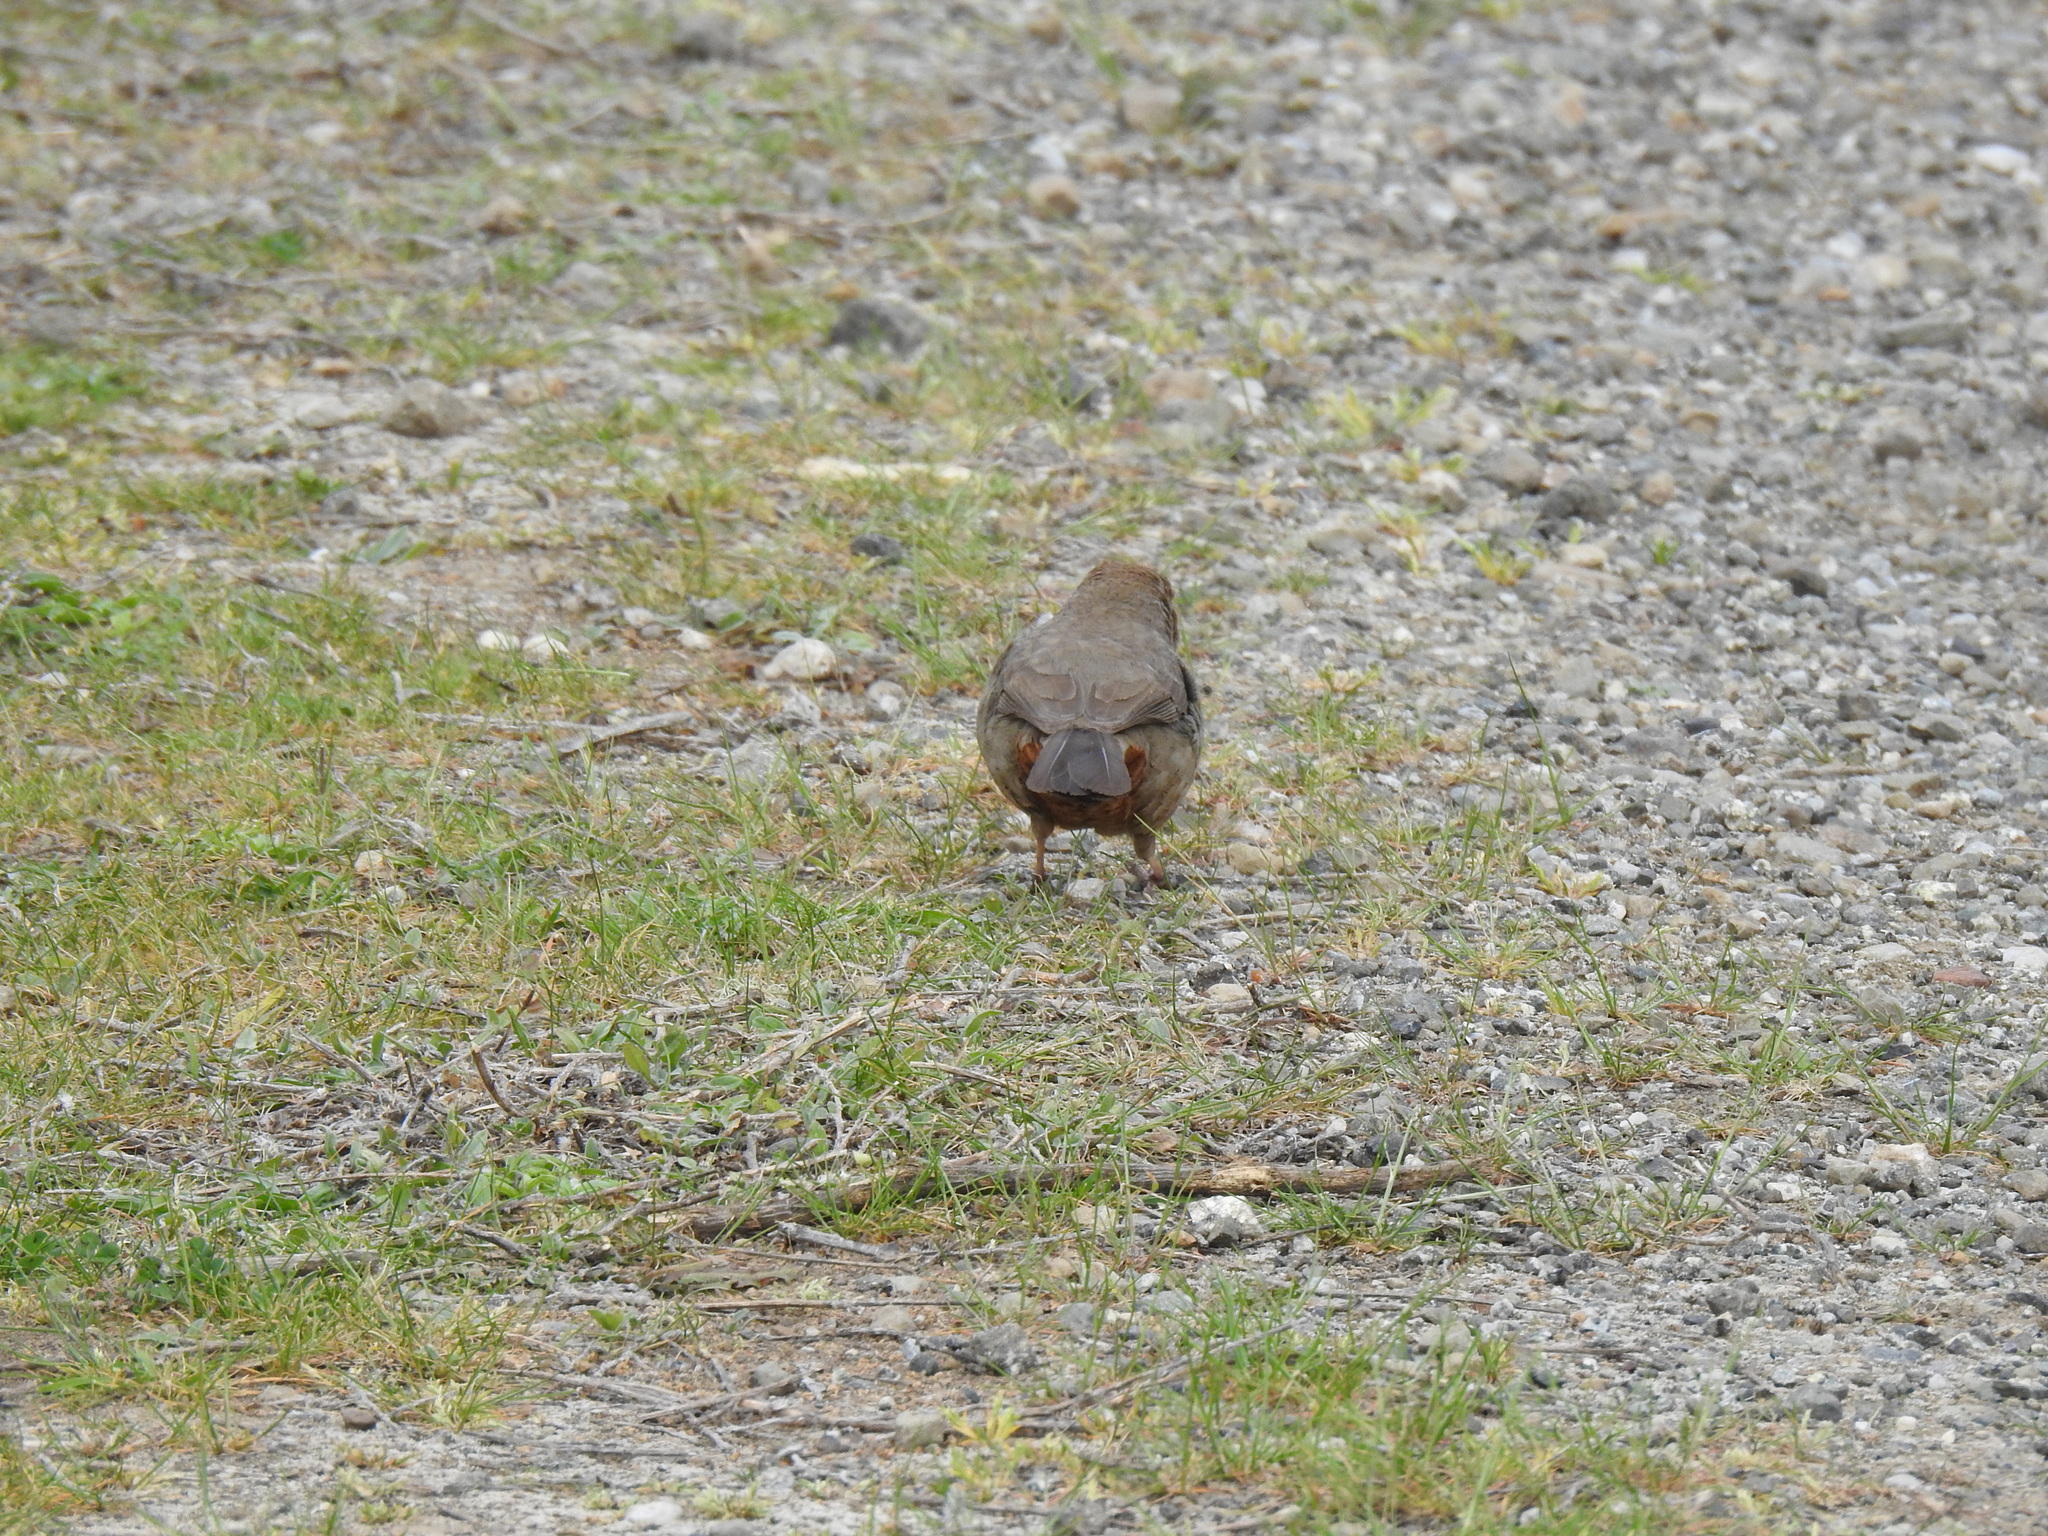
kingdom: Animalia
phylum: Chordata
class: Aves
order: Passeriformes
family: Passerellidae
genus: Melozone
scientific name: Melozone crissalis
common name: California towhee
